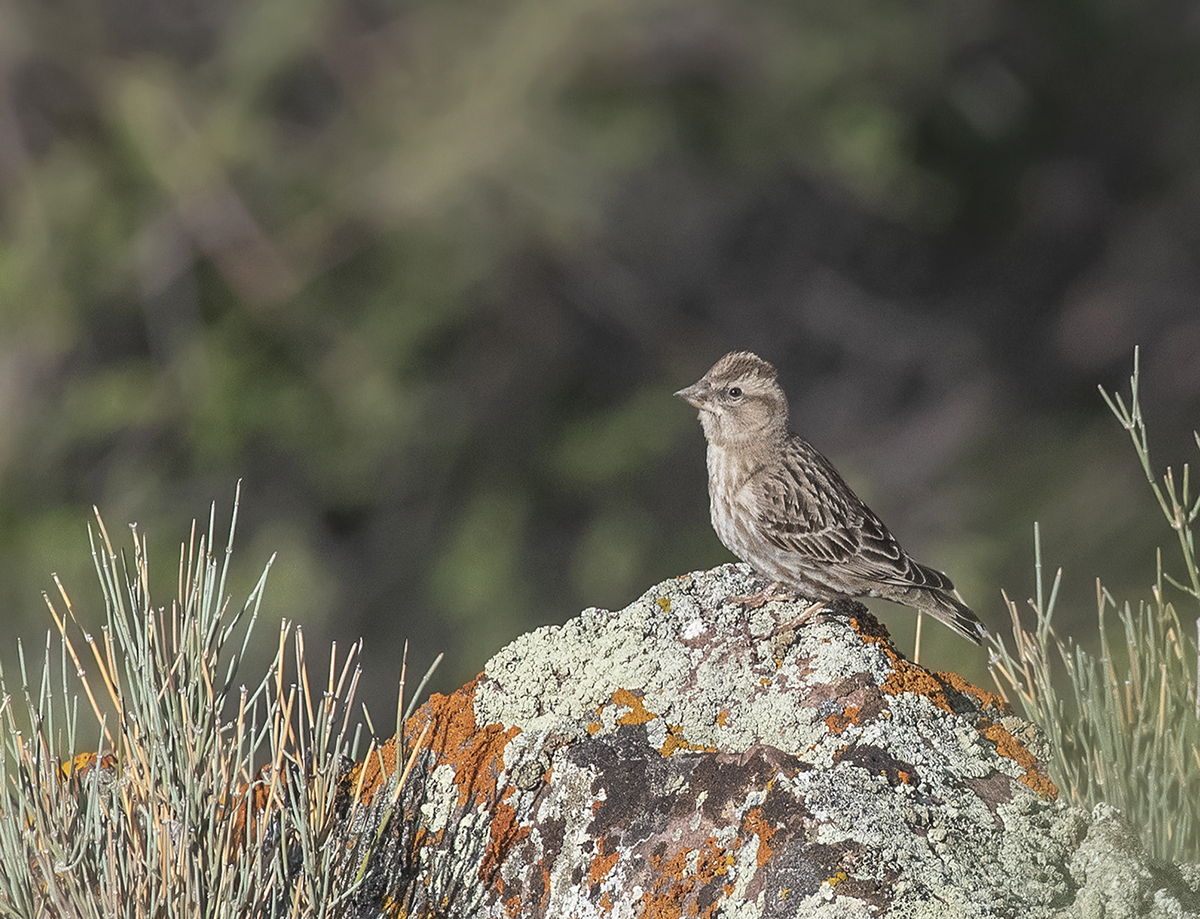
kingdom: Animalia
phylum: Chordata
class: Aves
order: Passeriformes
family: Passeridae
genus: Petronia
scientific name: Petronia petronia
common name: Rock sparrow
